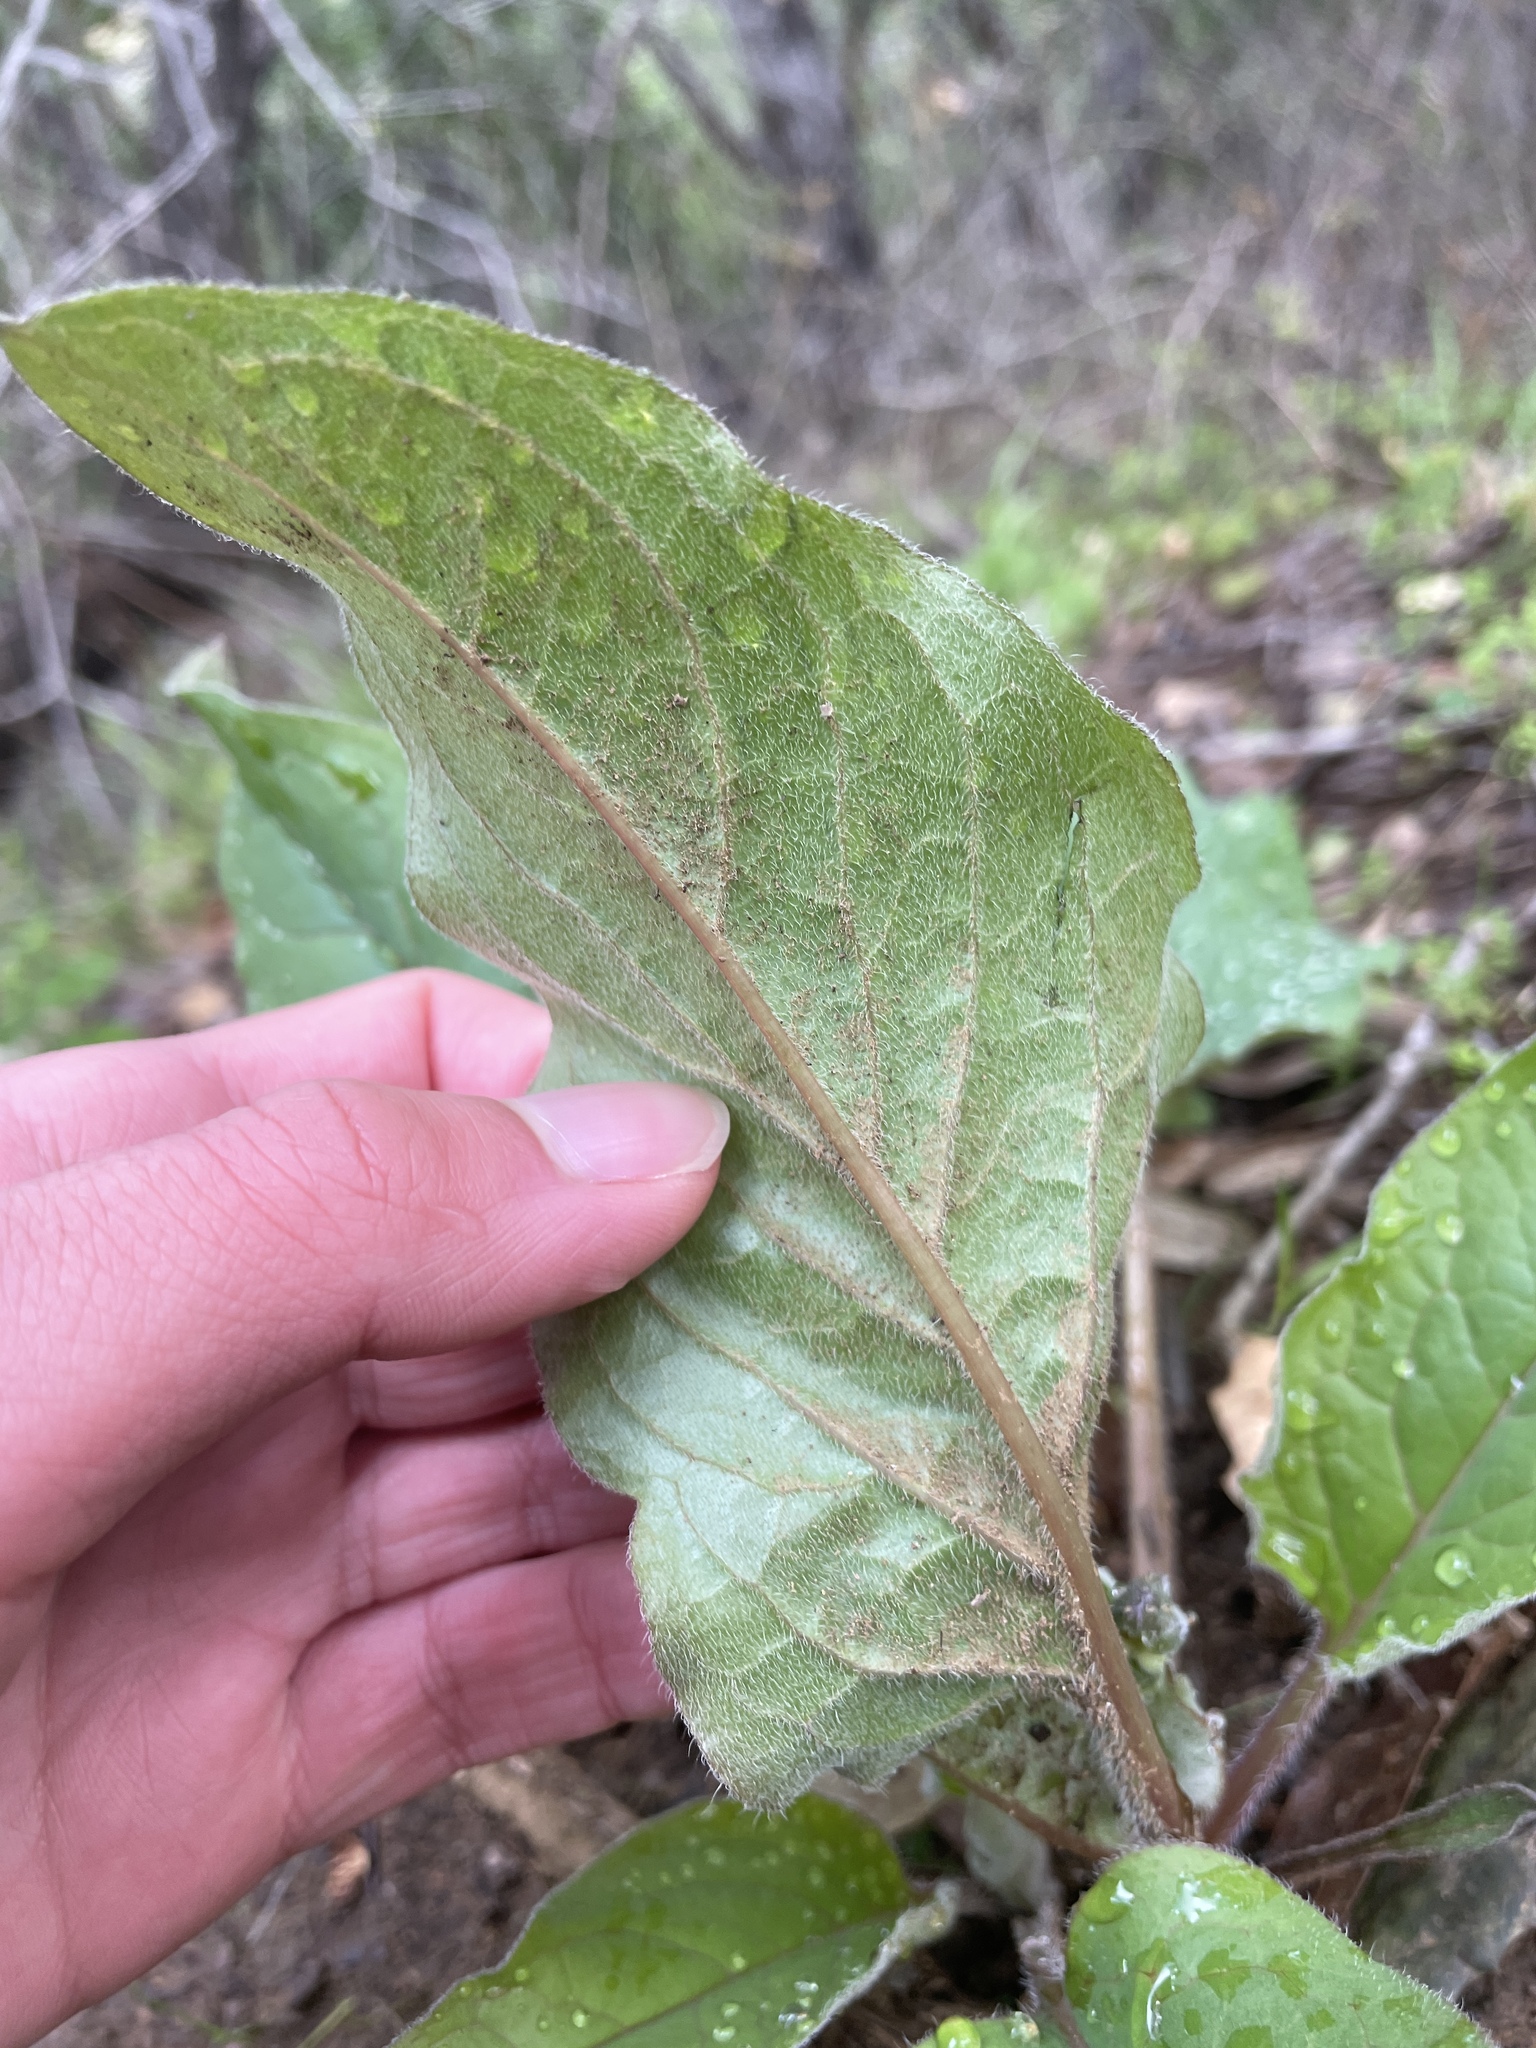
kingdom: Plantae
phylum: Tracheophyta
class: Magnoliopsida
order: Boraginales
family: Boraginaceae
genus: Adelinia
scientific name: Adelinia grande
